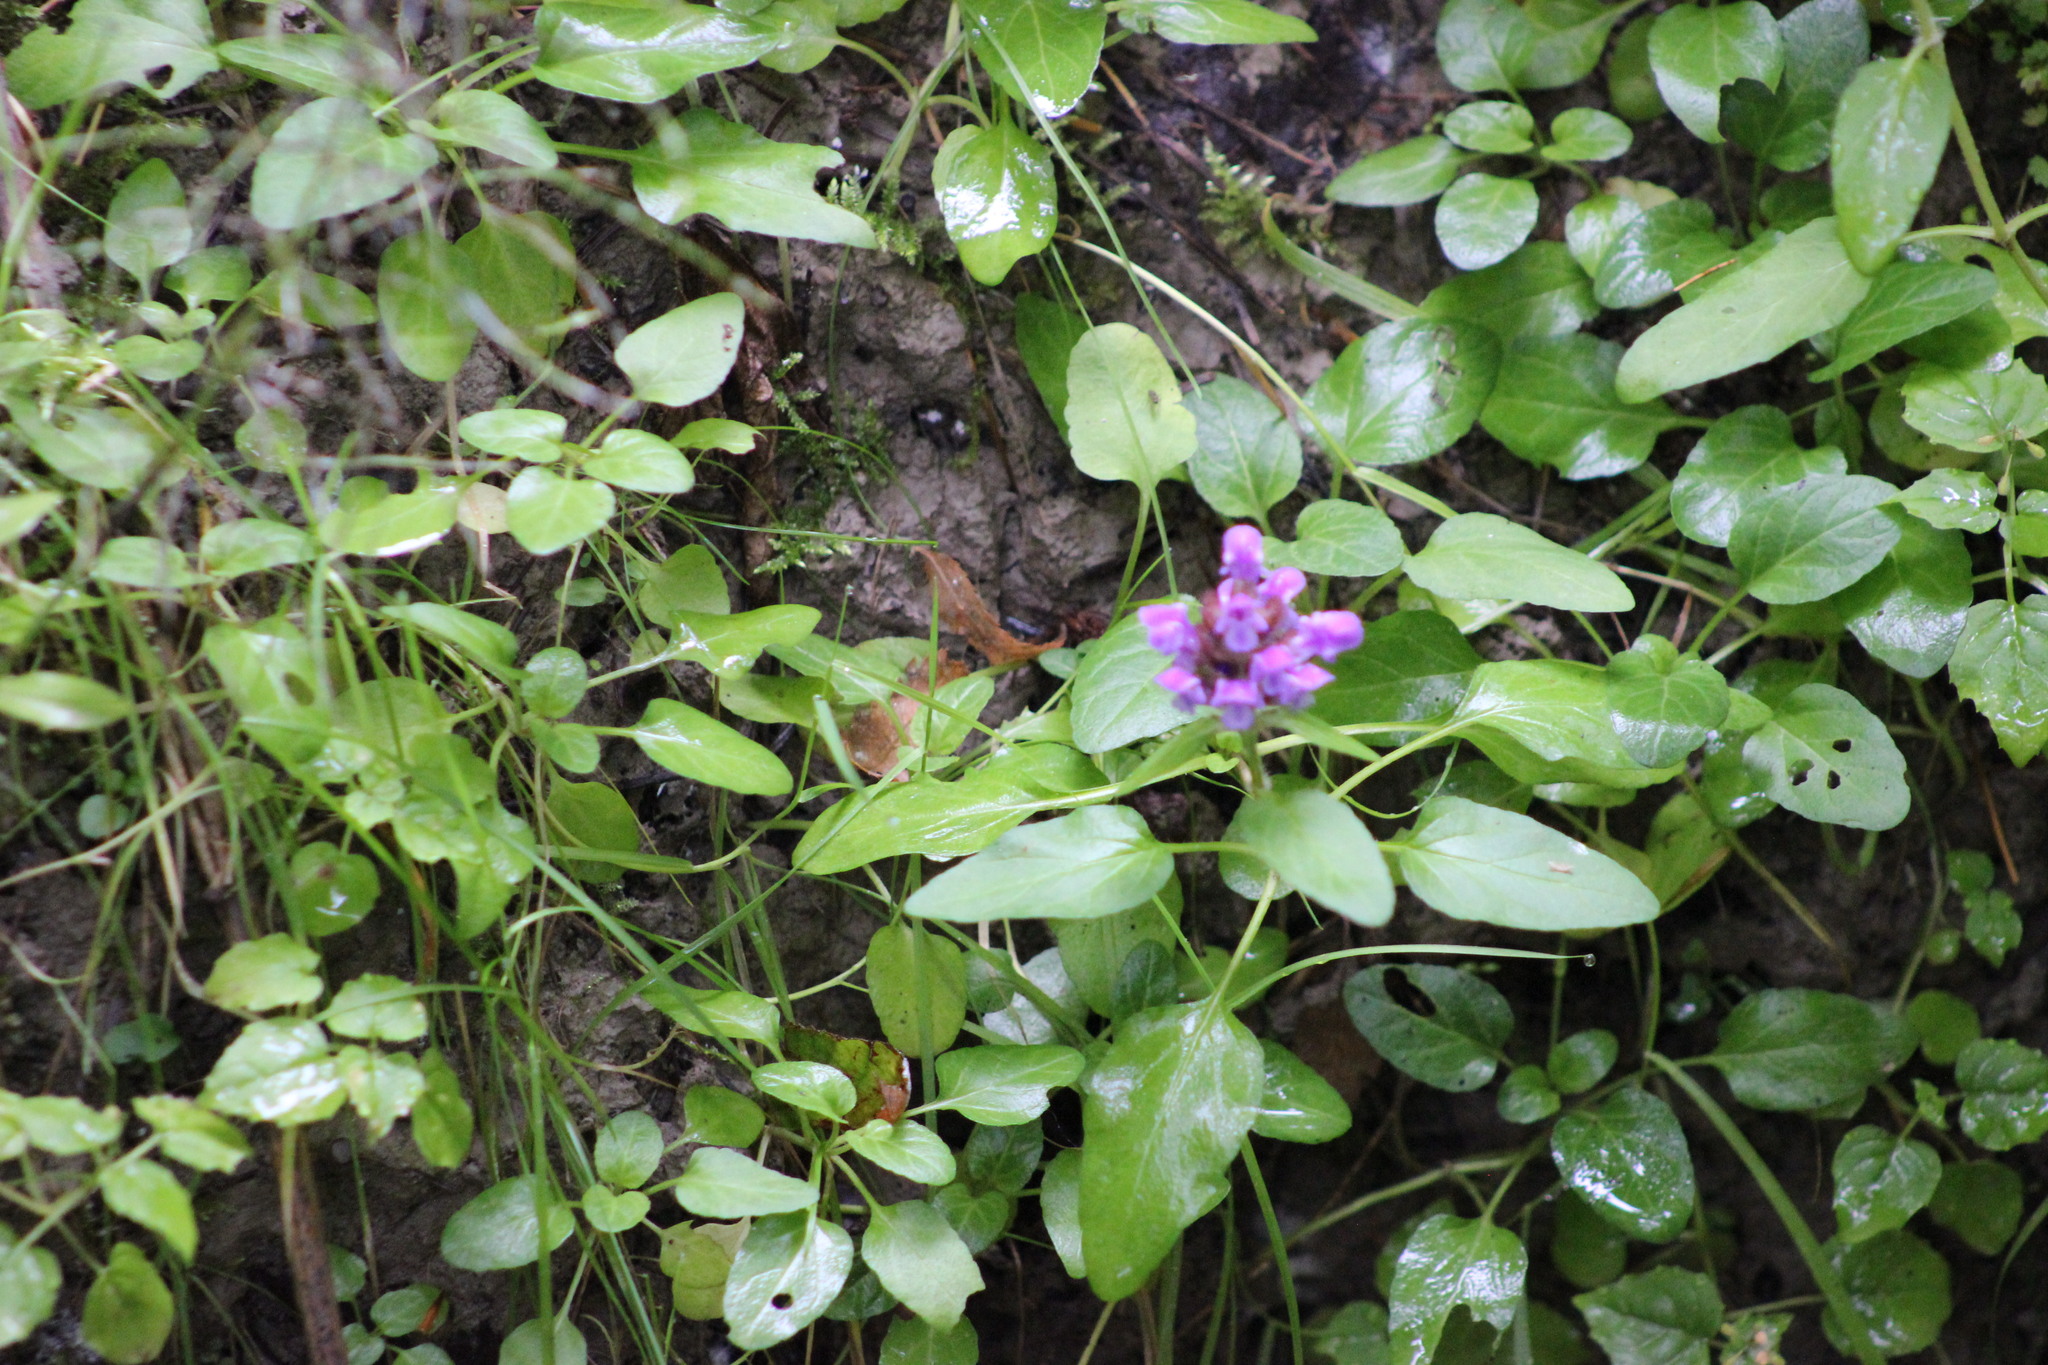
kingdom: Plantae
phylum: Tracheophyta
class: Magnoliopsida
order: Lamiales
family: Lamiaceae
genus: Prunella
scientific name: Prunella vulgaris
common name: Heal-all
